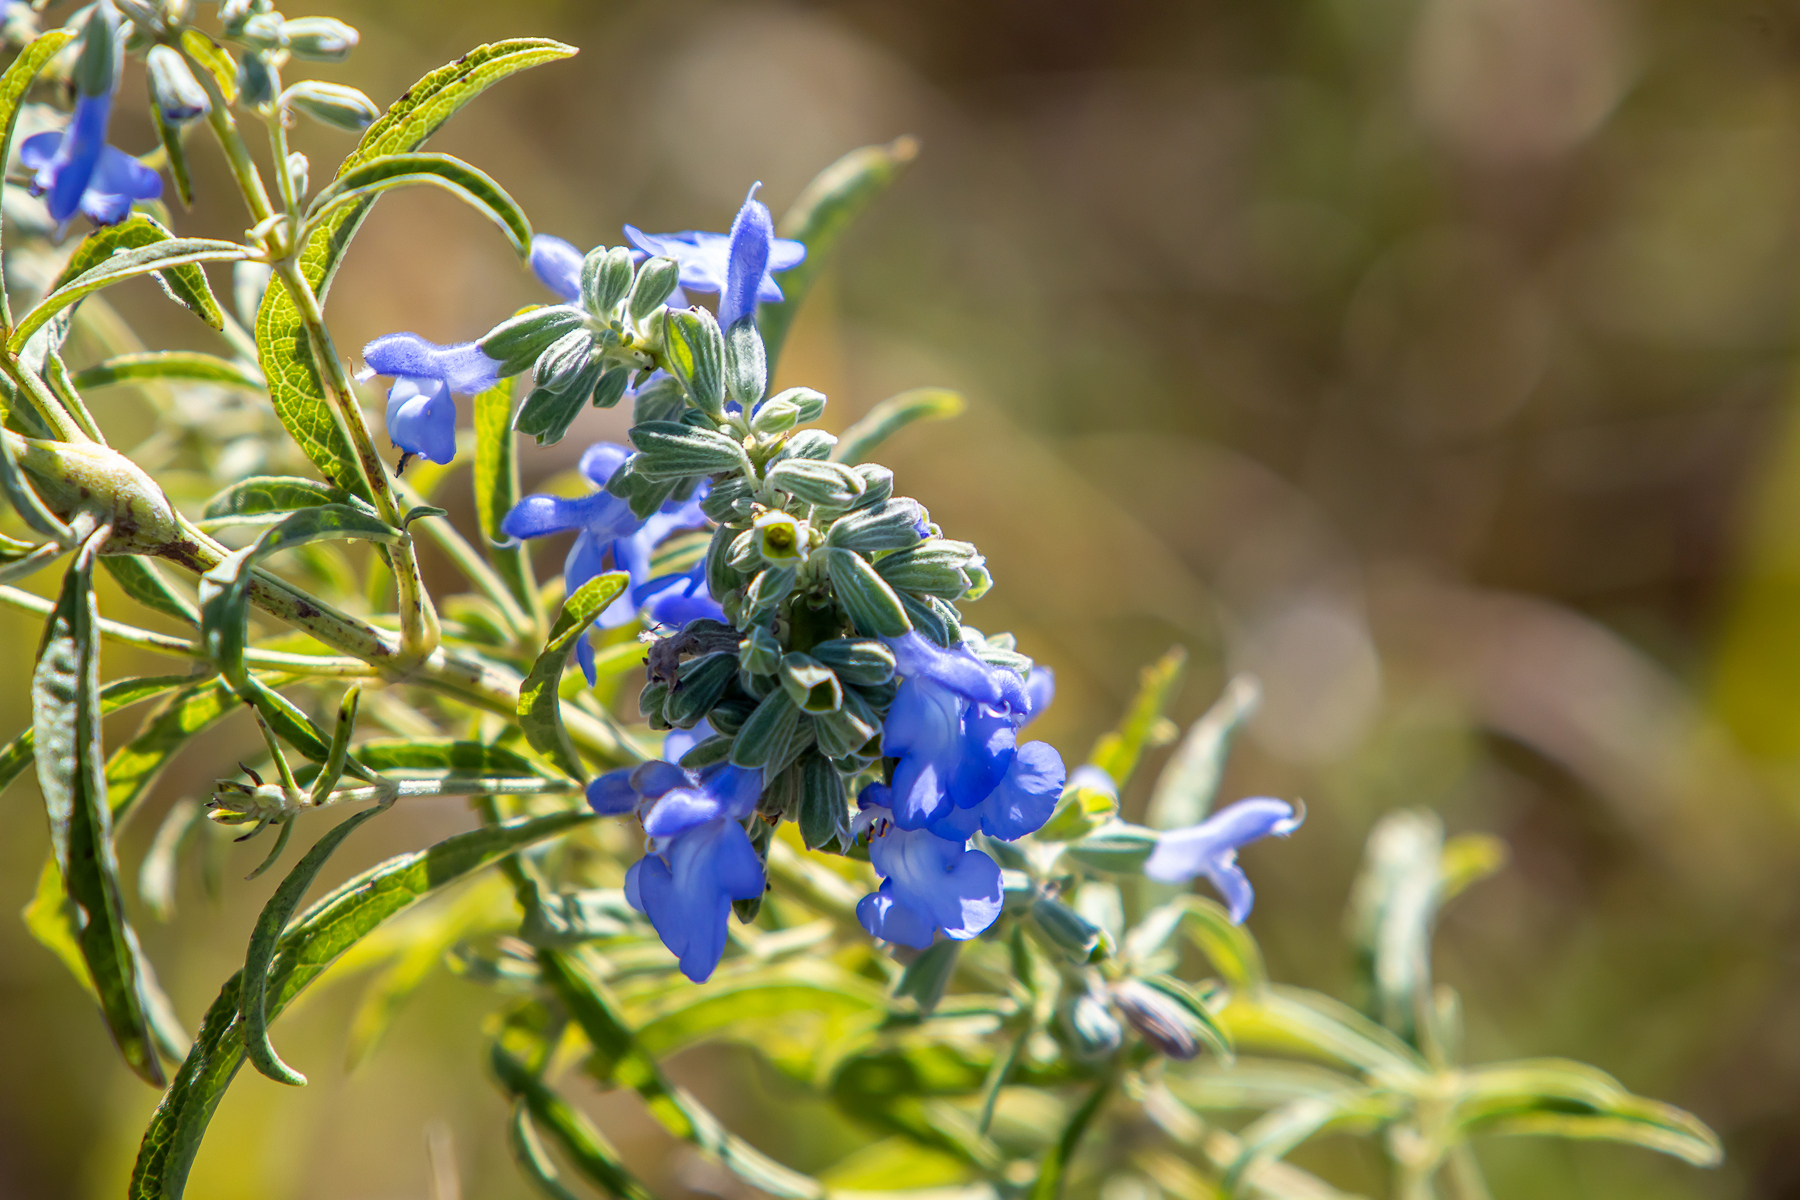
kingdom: Plantae
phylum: Tracheophyta
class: Magnoliopsida
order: Lamiales
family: Lamiaceae
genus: Salvia
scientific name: Salvia azurea
